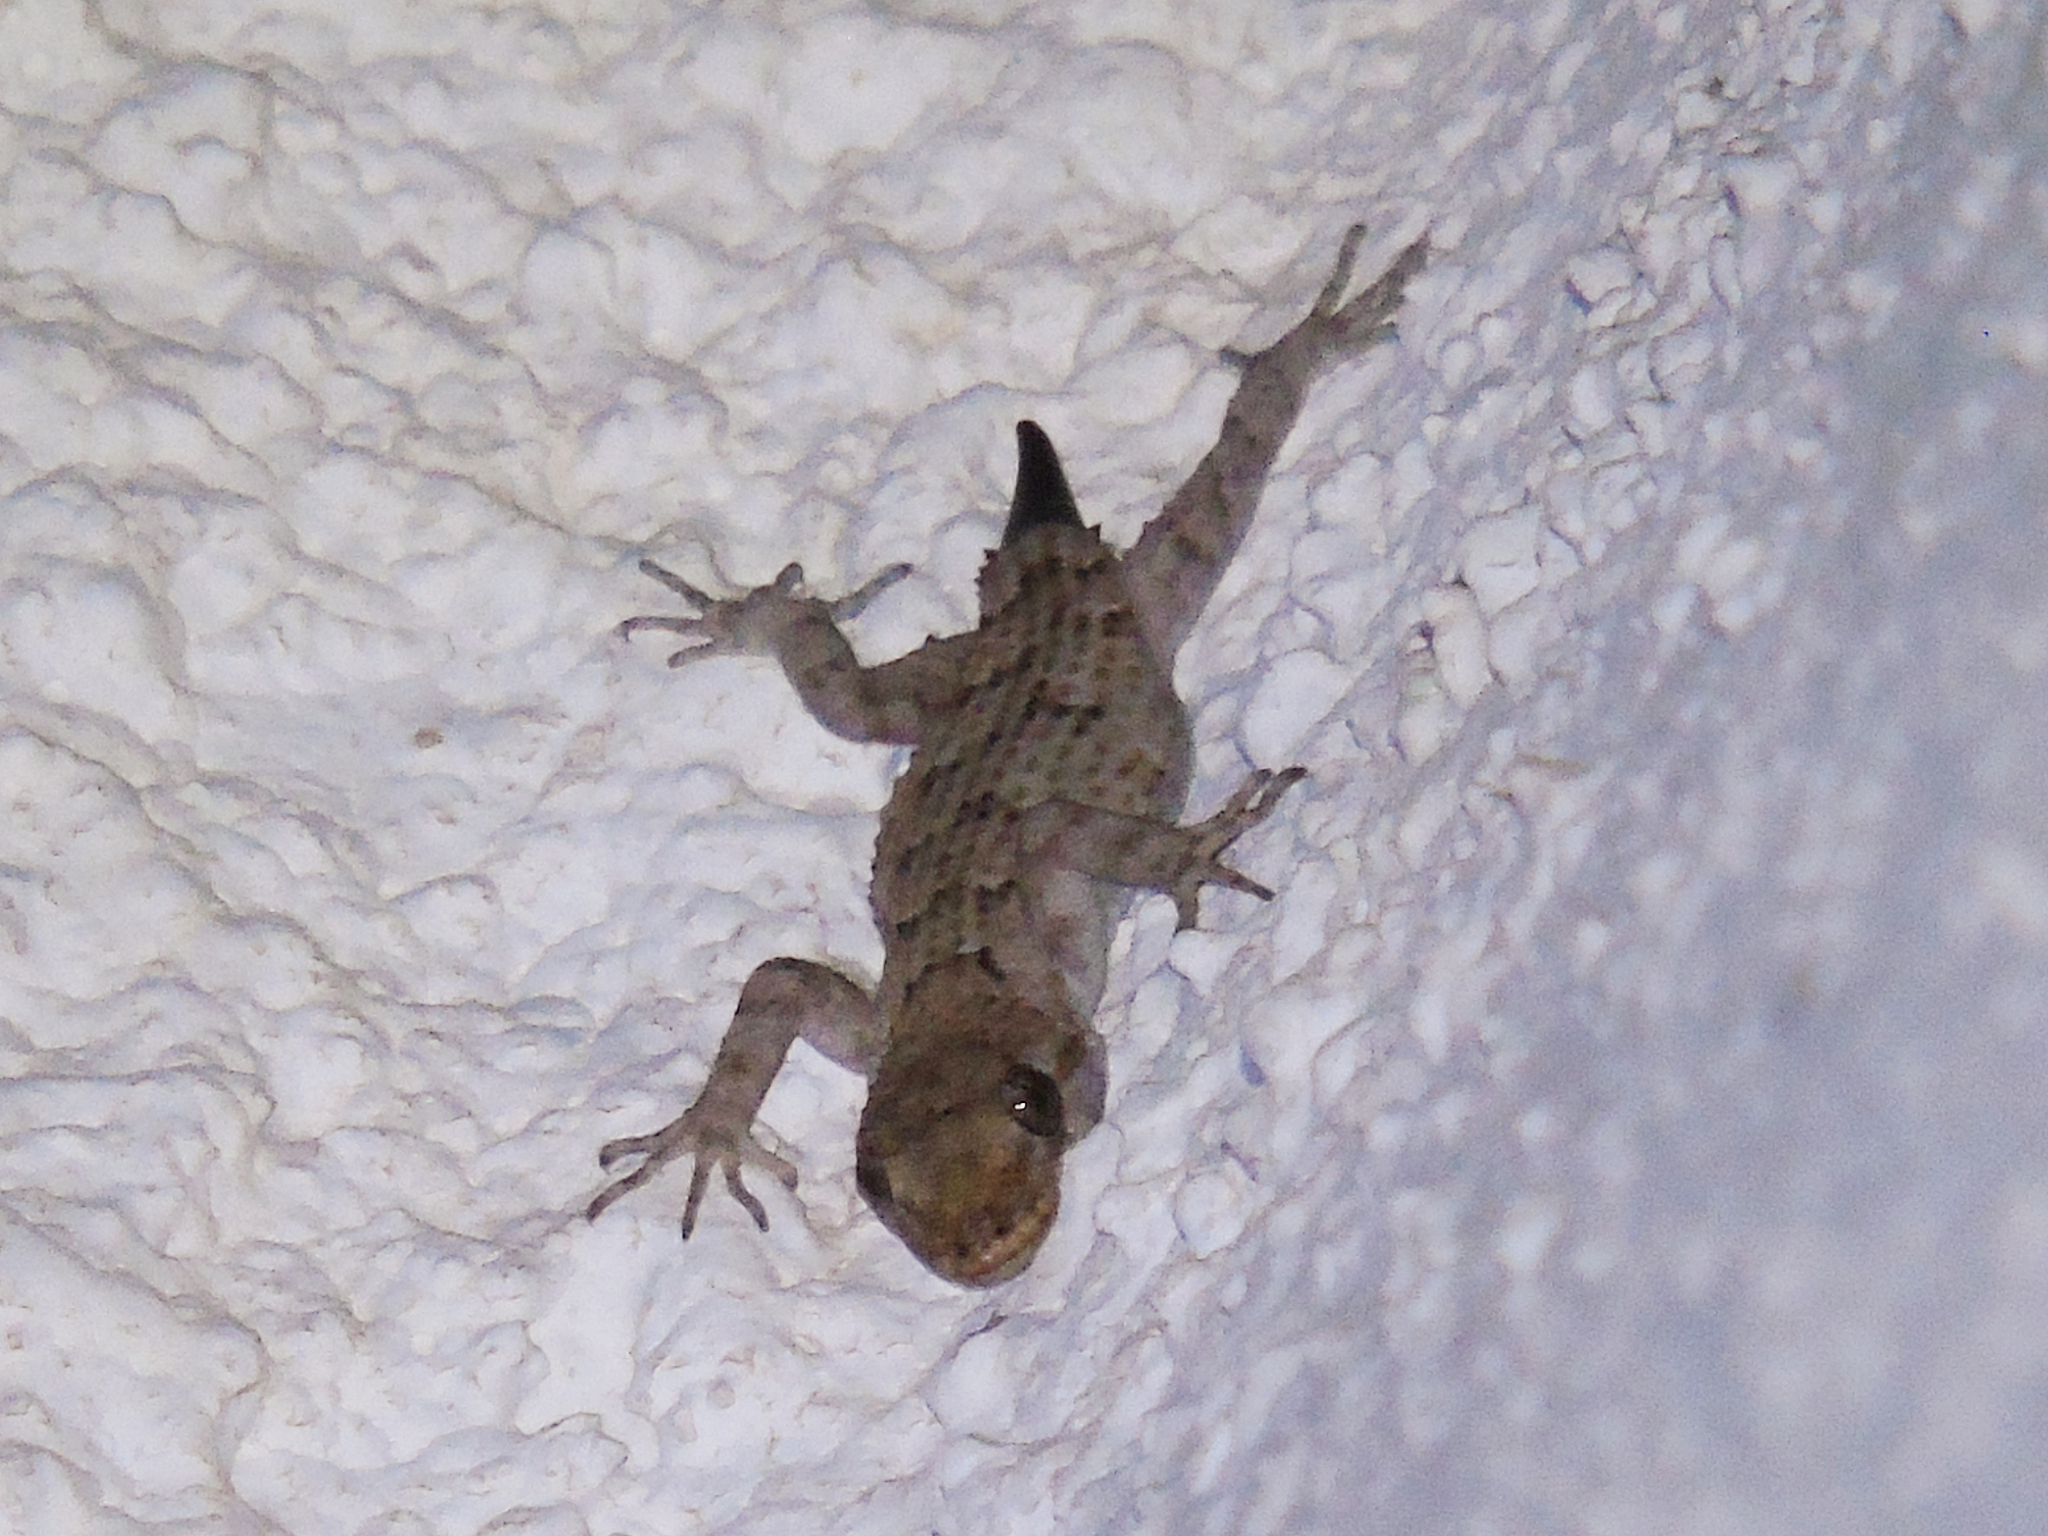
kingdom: Animalia
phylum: Chordata
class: Squamata
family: Gekkonidae
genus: Mediodactylus
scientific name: Mediodactylus kotschyi
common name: Kotschy's gecko
